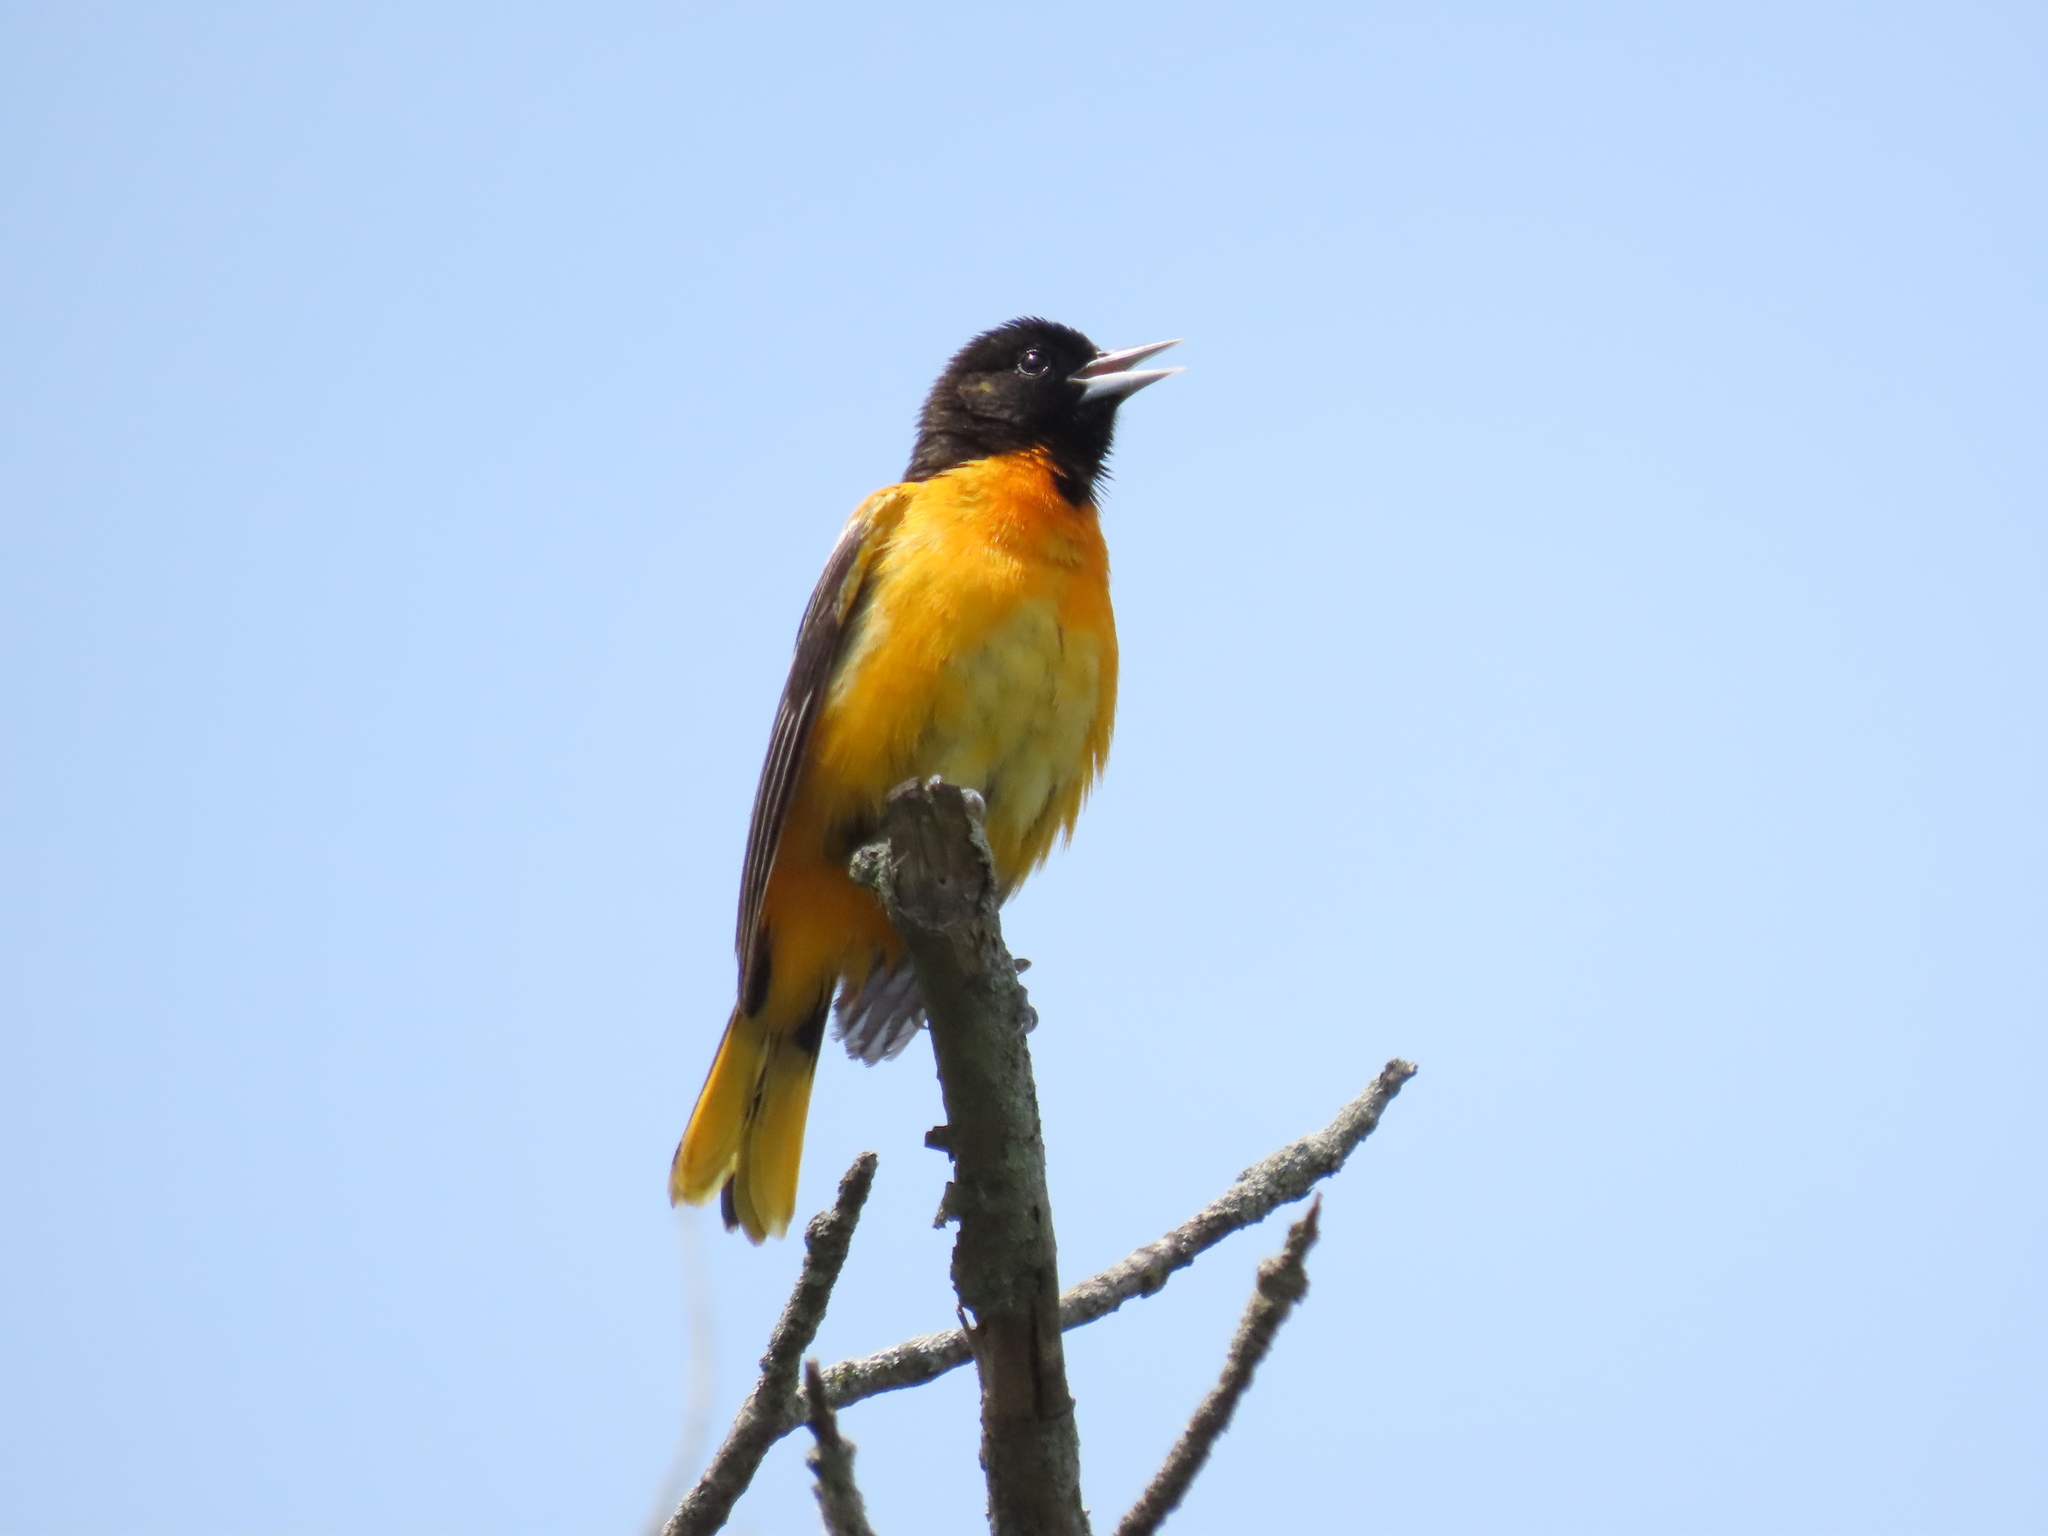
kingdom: Animalia
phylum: Chordata
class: Aves
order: Passeriformes
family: Icteridae
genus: Icterus
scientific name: Icterus galbula
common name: Baltimore oriole
